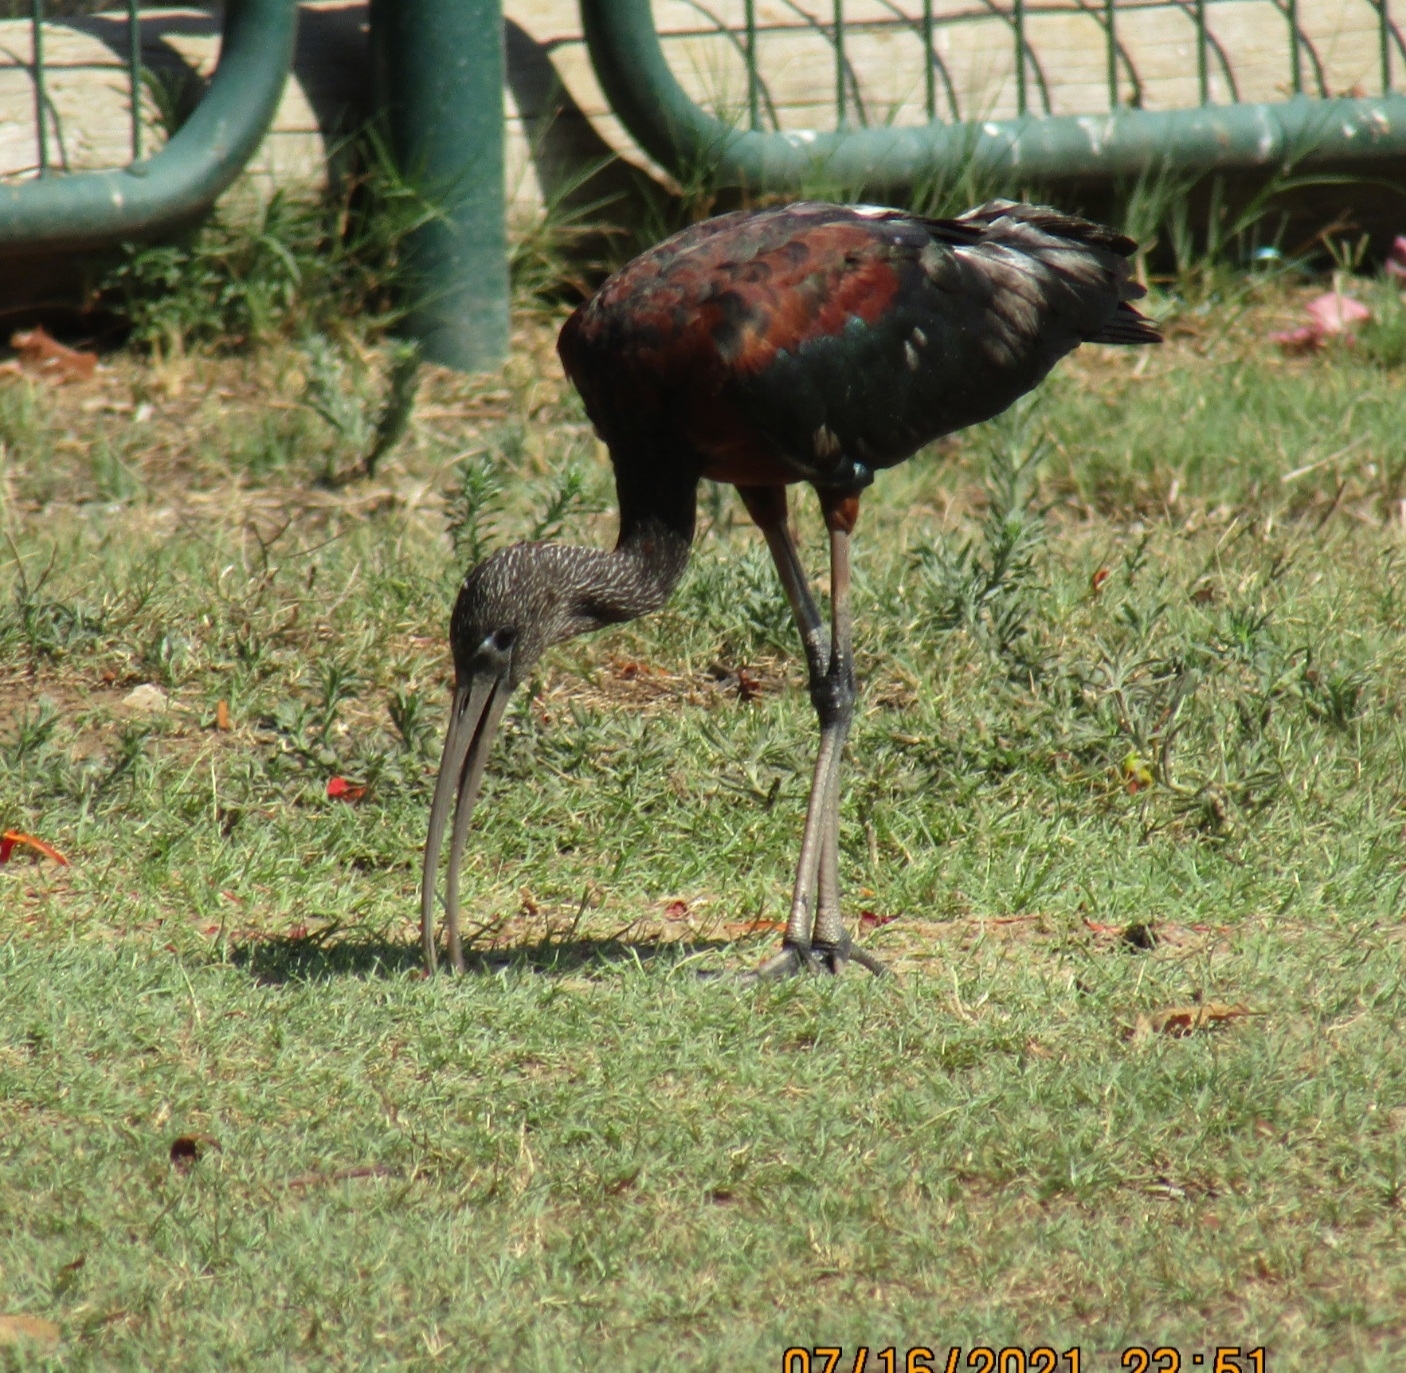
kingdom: Animalia
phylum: Chordata
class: Aves
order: Pelecaniformes
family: Threskiornithidae
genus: Plegadis
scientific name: Plegadis falcinellus
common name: Glossy ibis
